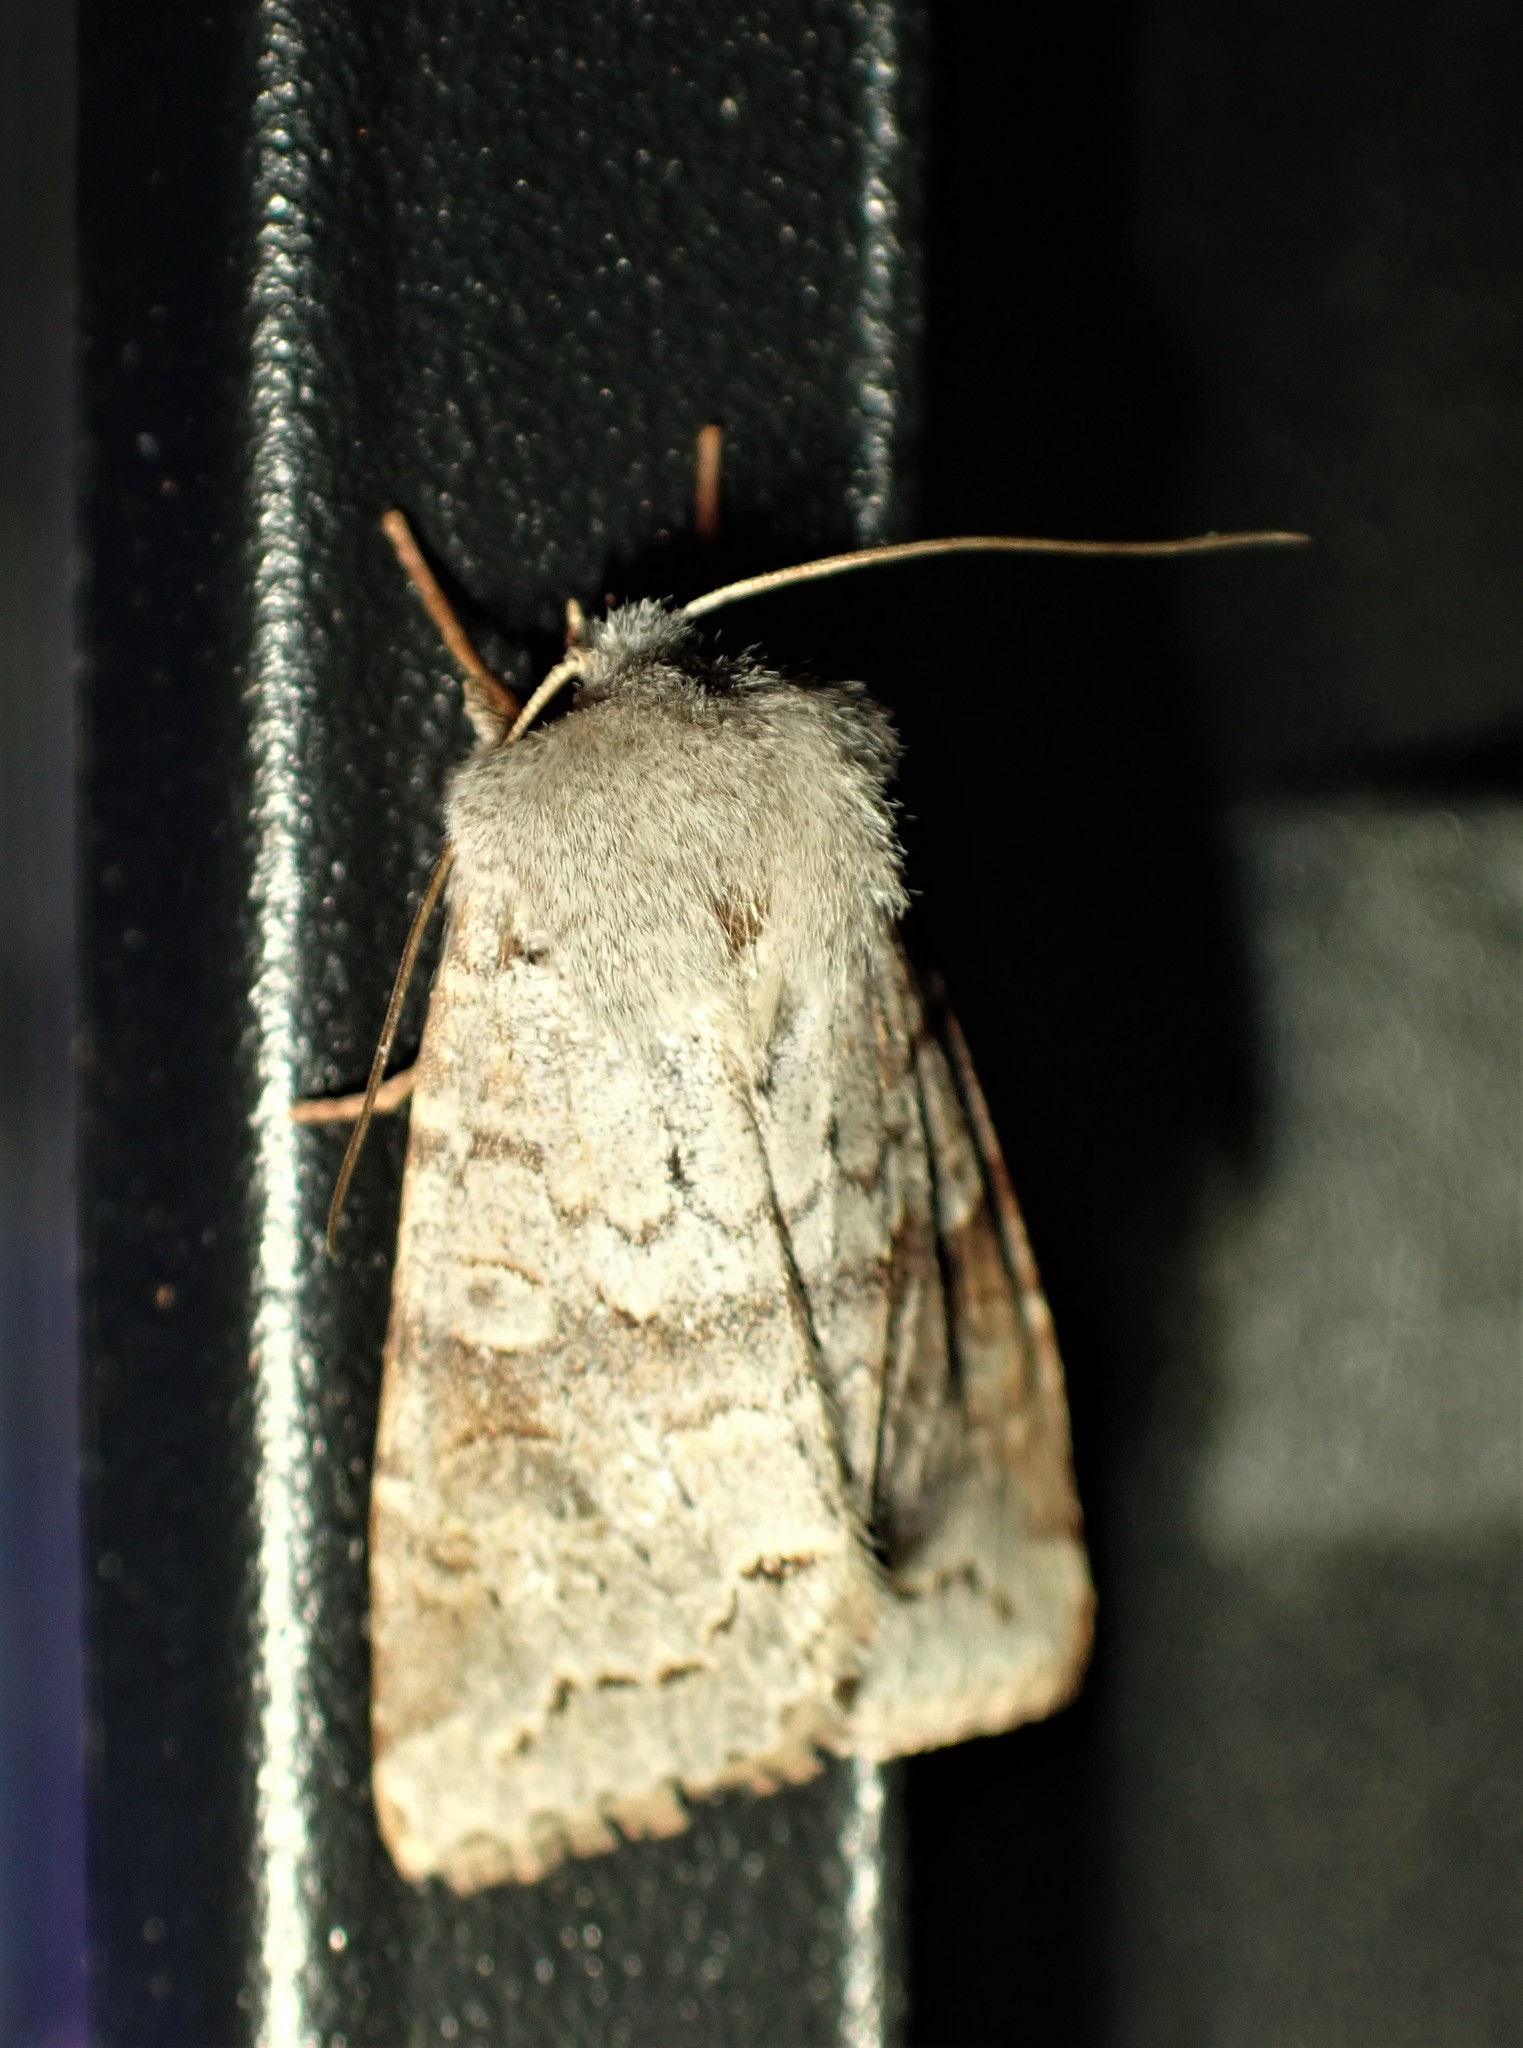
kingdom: Animalia
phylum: Arthropoda
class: Insecta
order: Lepidoptera
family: Noctuidae
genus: Orthosia
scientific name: Orthosia revicta
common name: Rusty whitesided caterpillar
